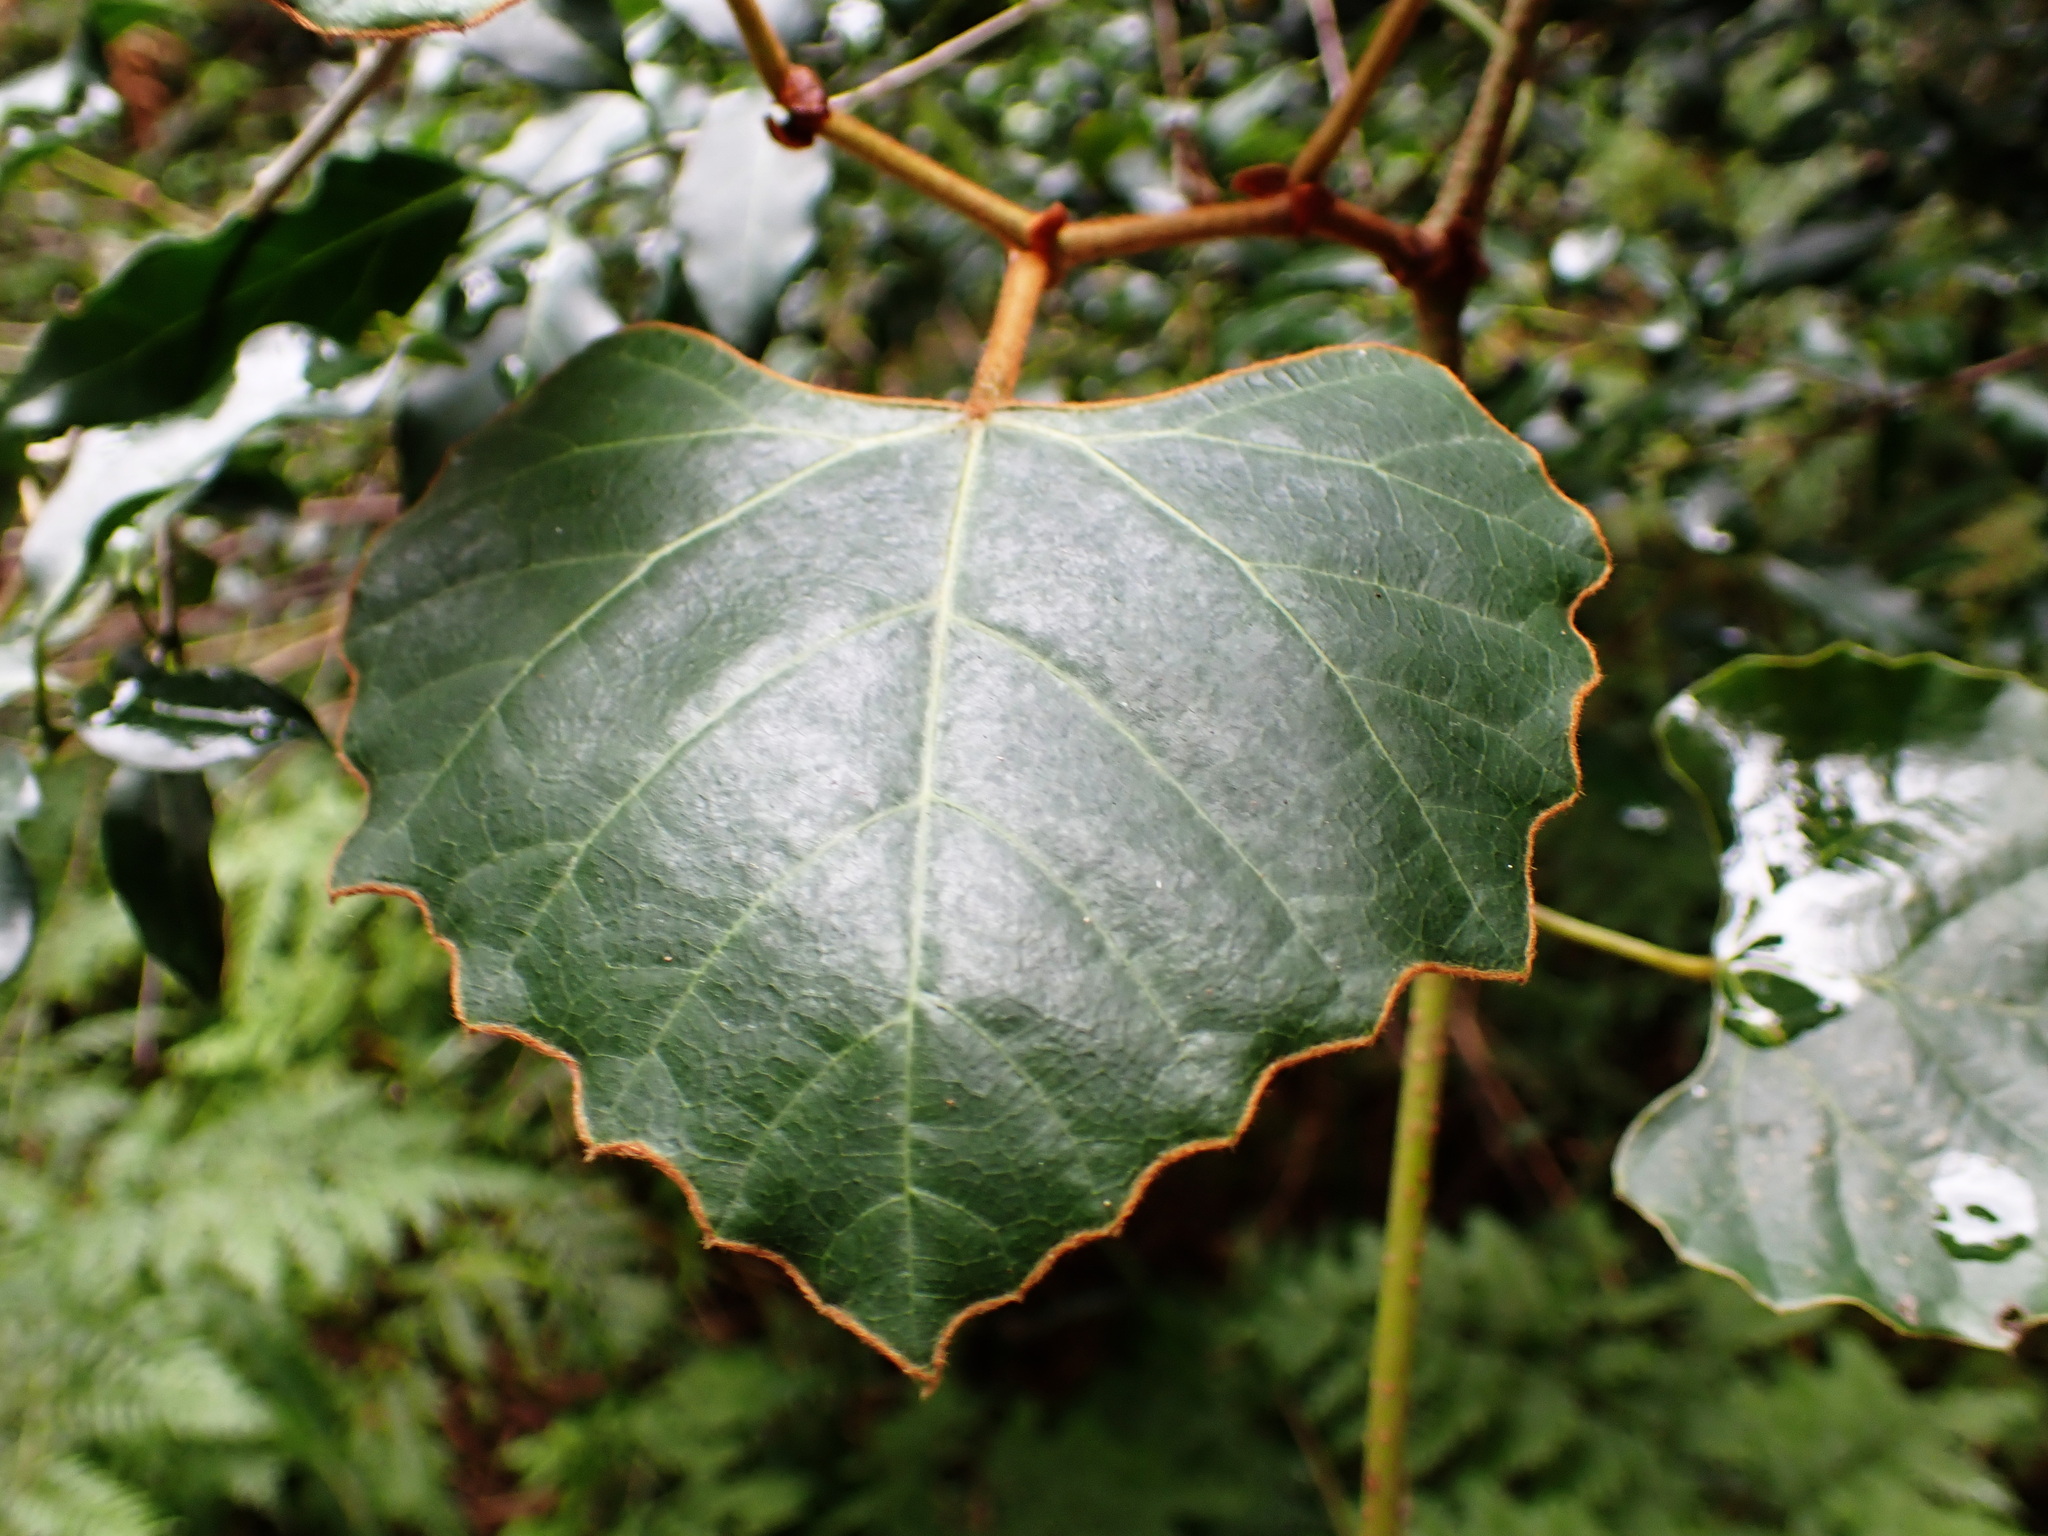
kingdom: Plantae
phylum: Tracheophyta
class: Magnoliopsida
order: Vitales
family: Vitaceae
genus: Rhoicissus
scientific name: Rhoicissus tomentosa
